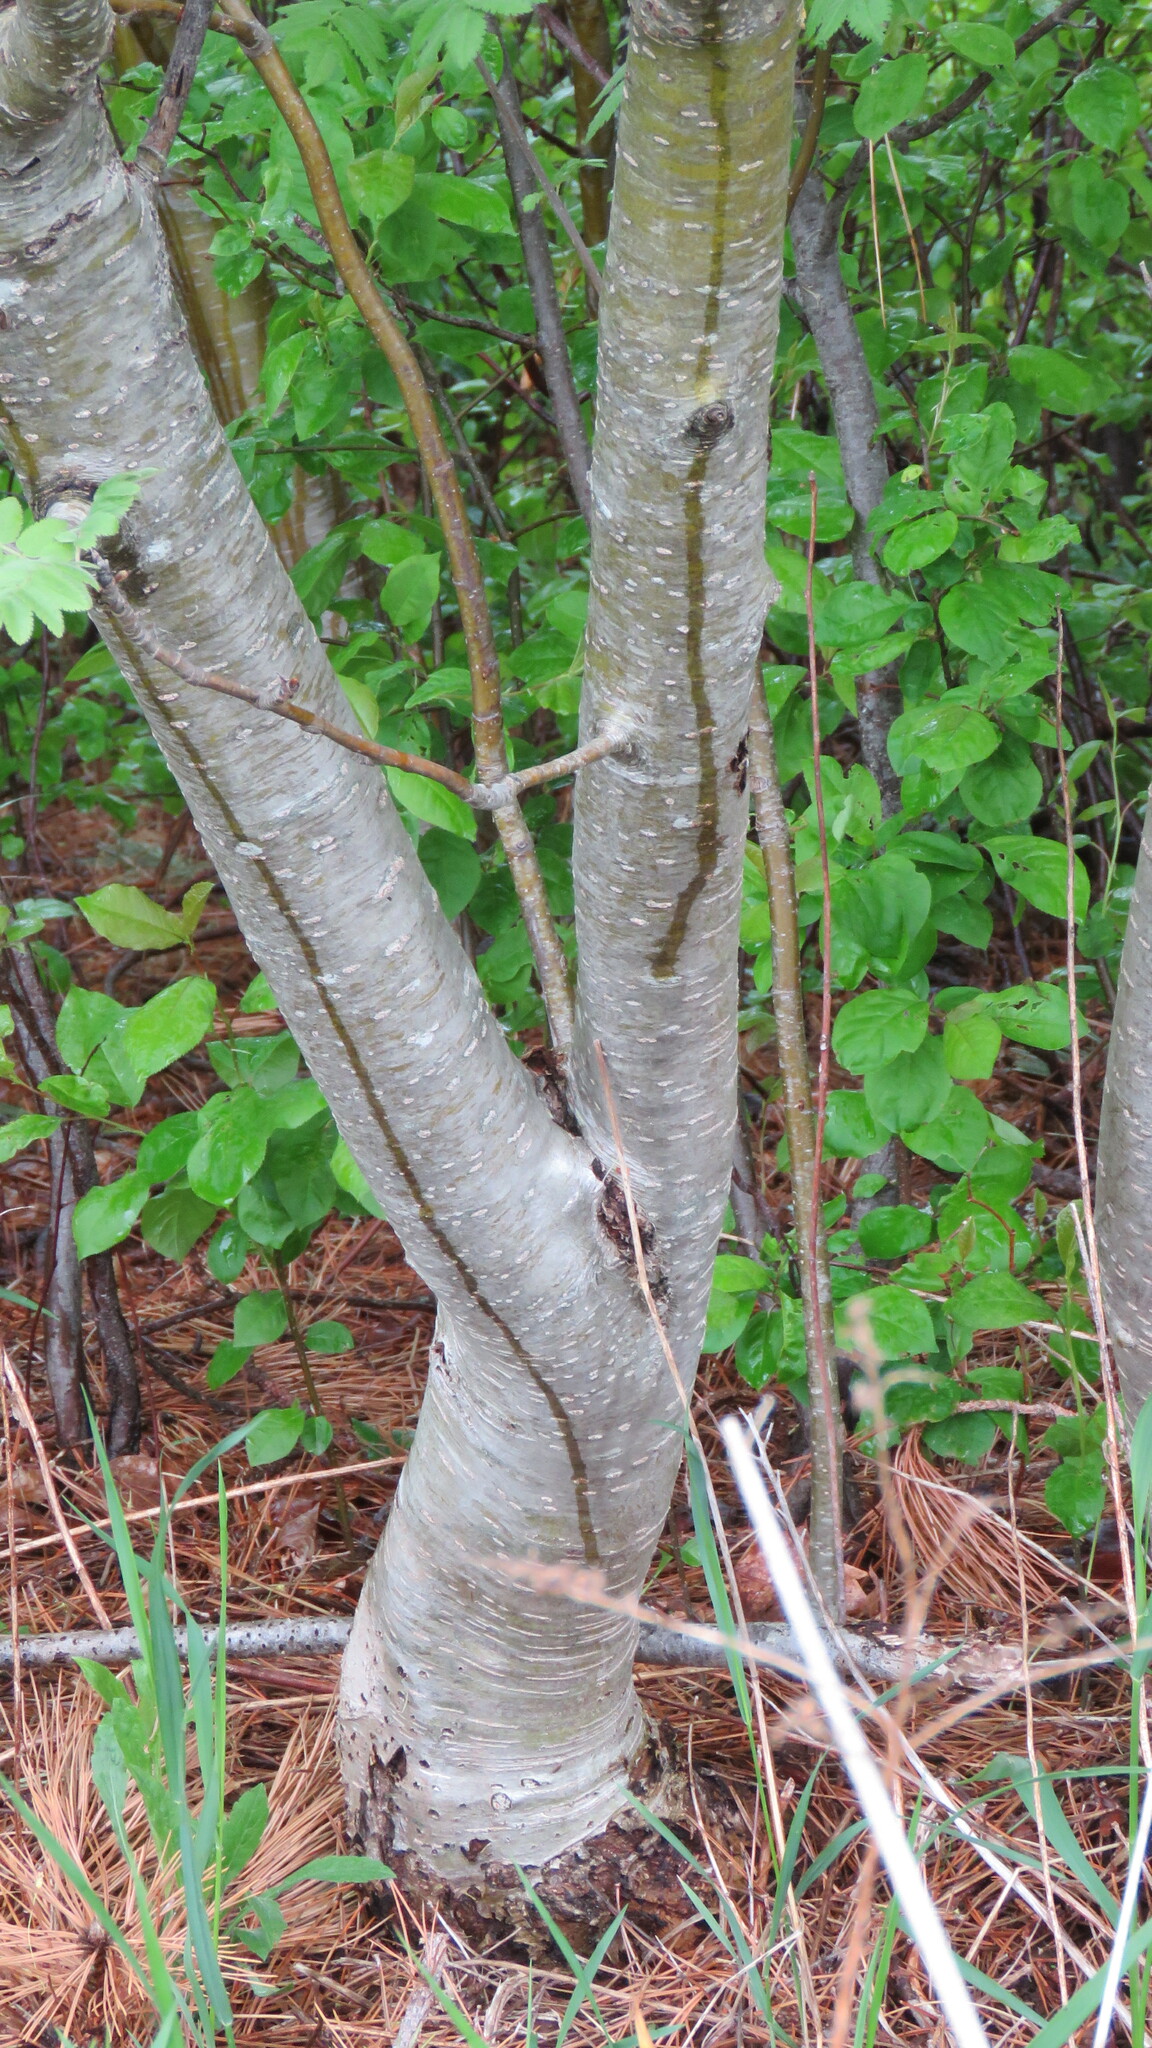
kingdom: Plantae
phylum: Tracheophyta
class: Magnoliopsida
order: Rosales
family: Rosaceae
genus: Sorbus
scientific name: Sorbus aucuparia
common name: Rowan
